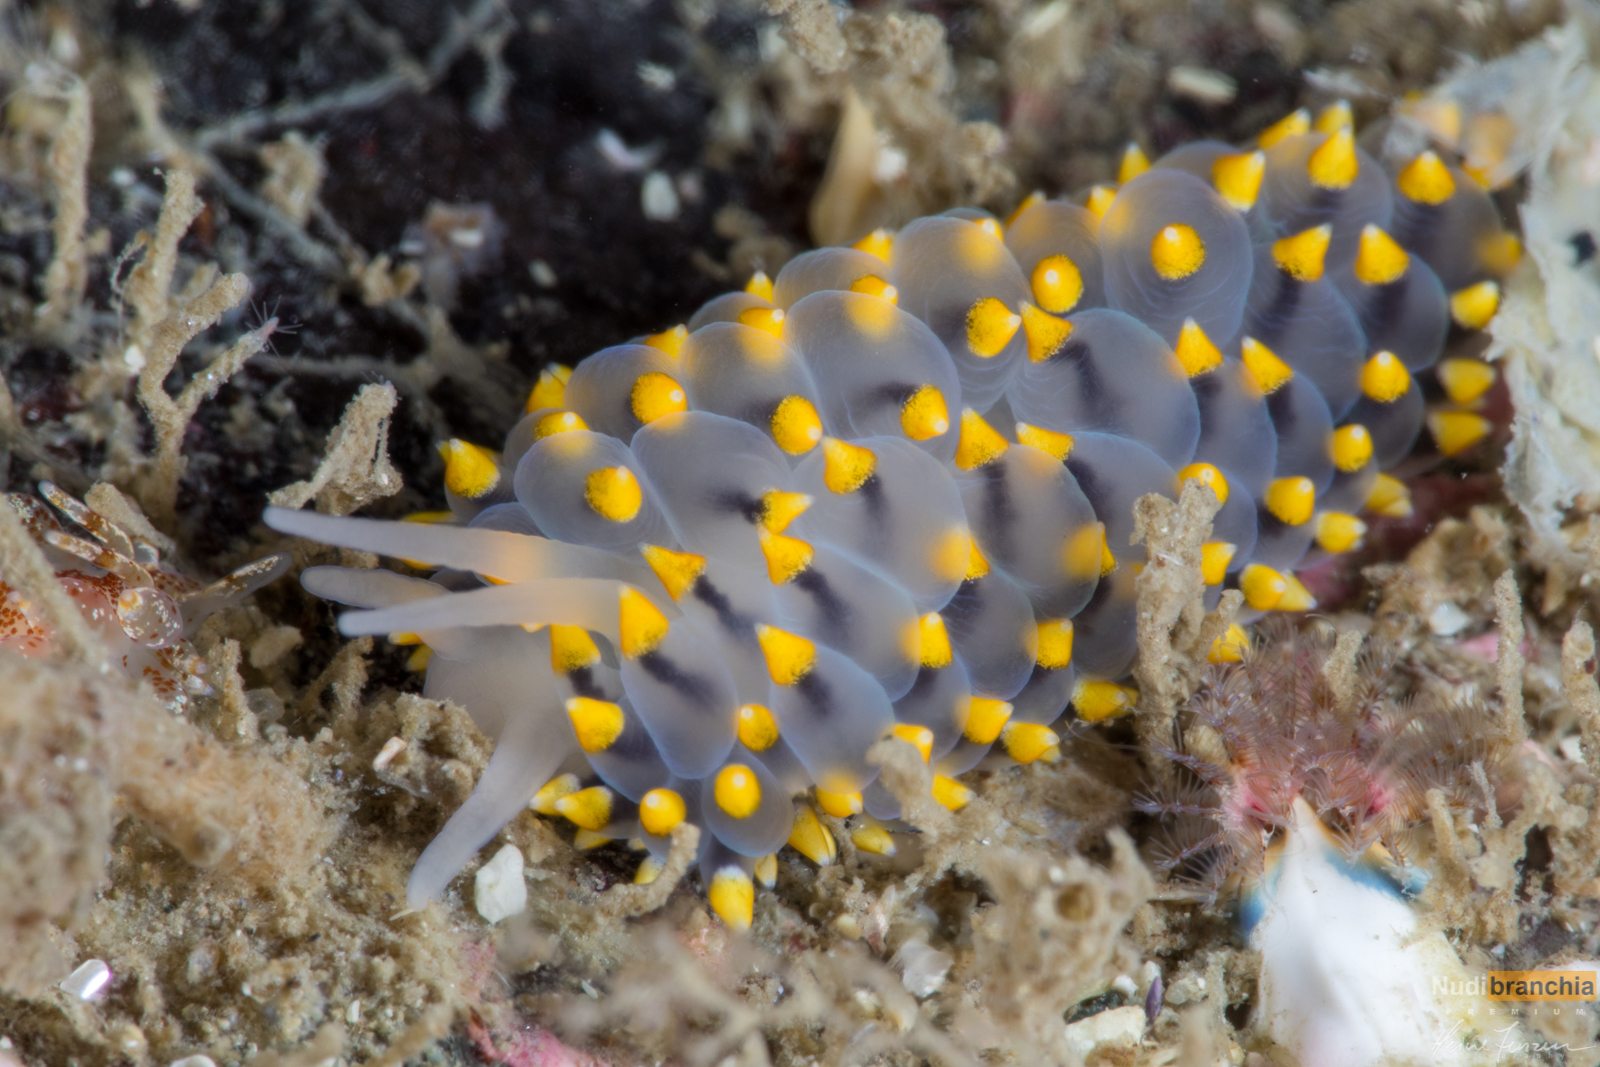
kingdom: Animalia
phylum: Mollusca
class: Gastropoda
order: Nudibranchia
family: Eubranchidae
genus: Eubranchus
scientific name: Eubranchus tricolor
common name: Painted balloon aeolis
